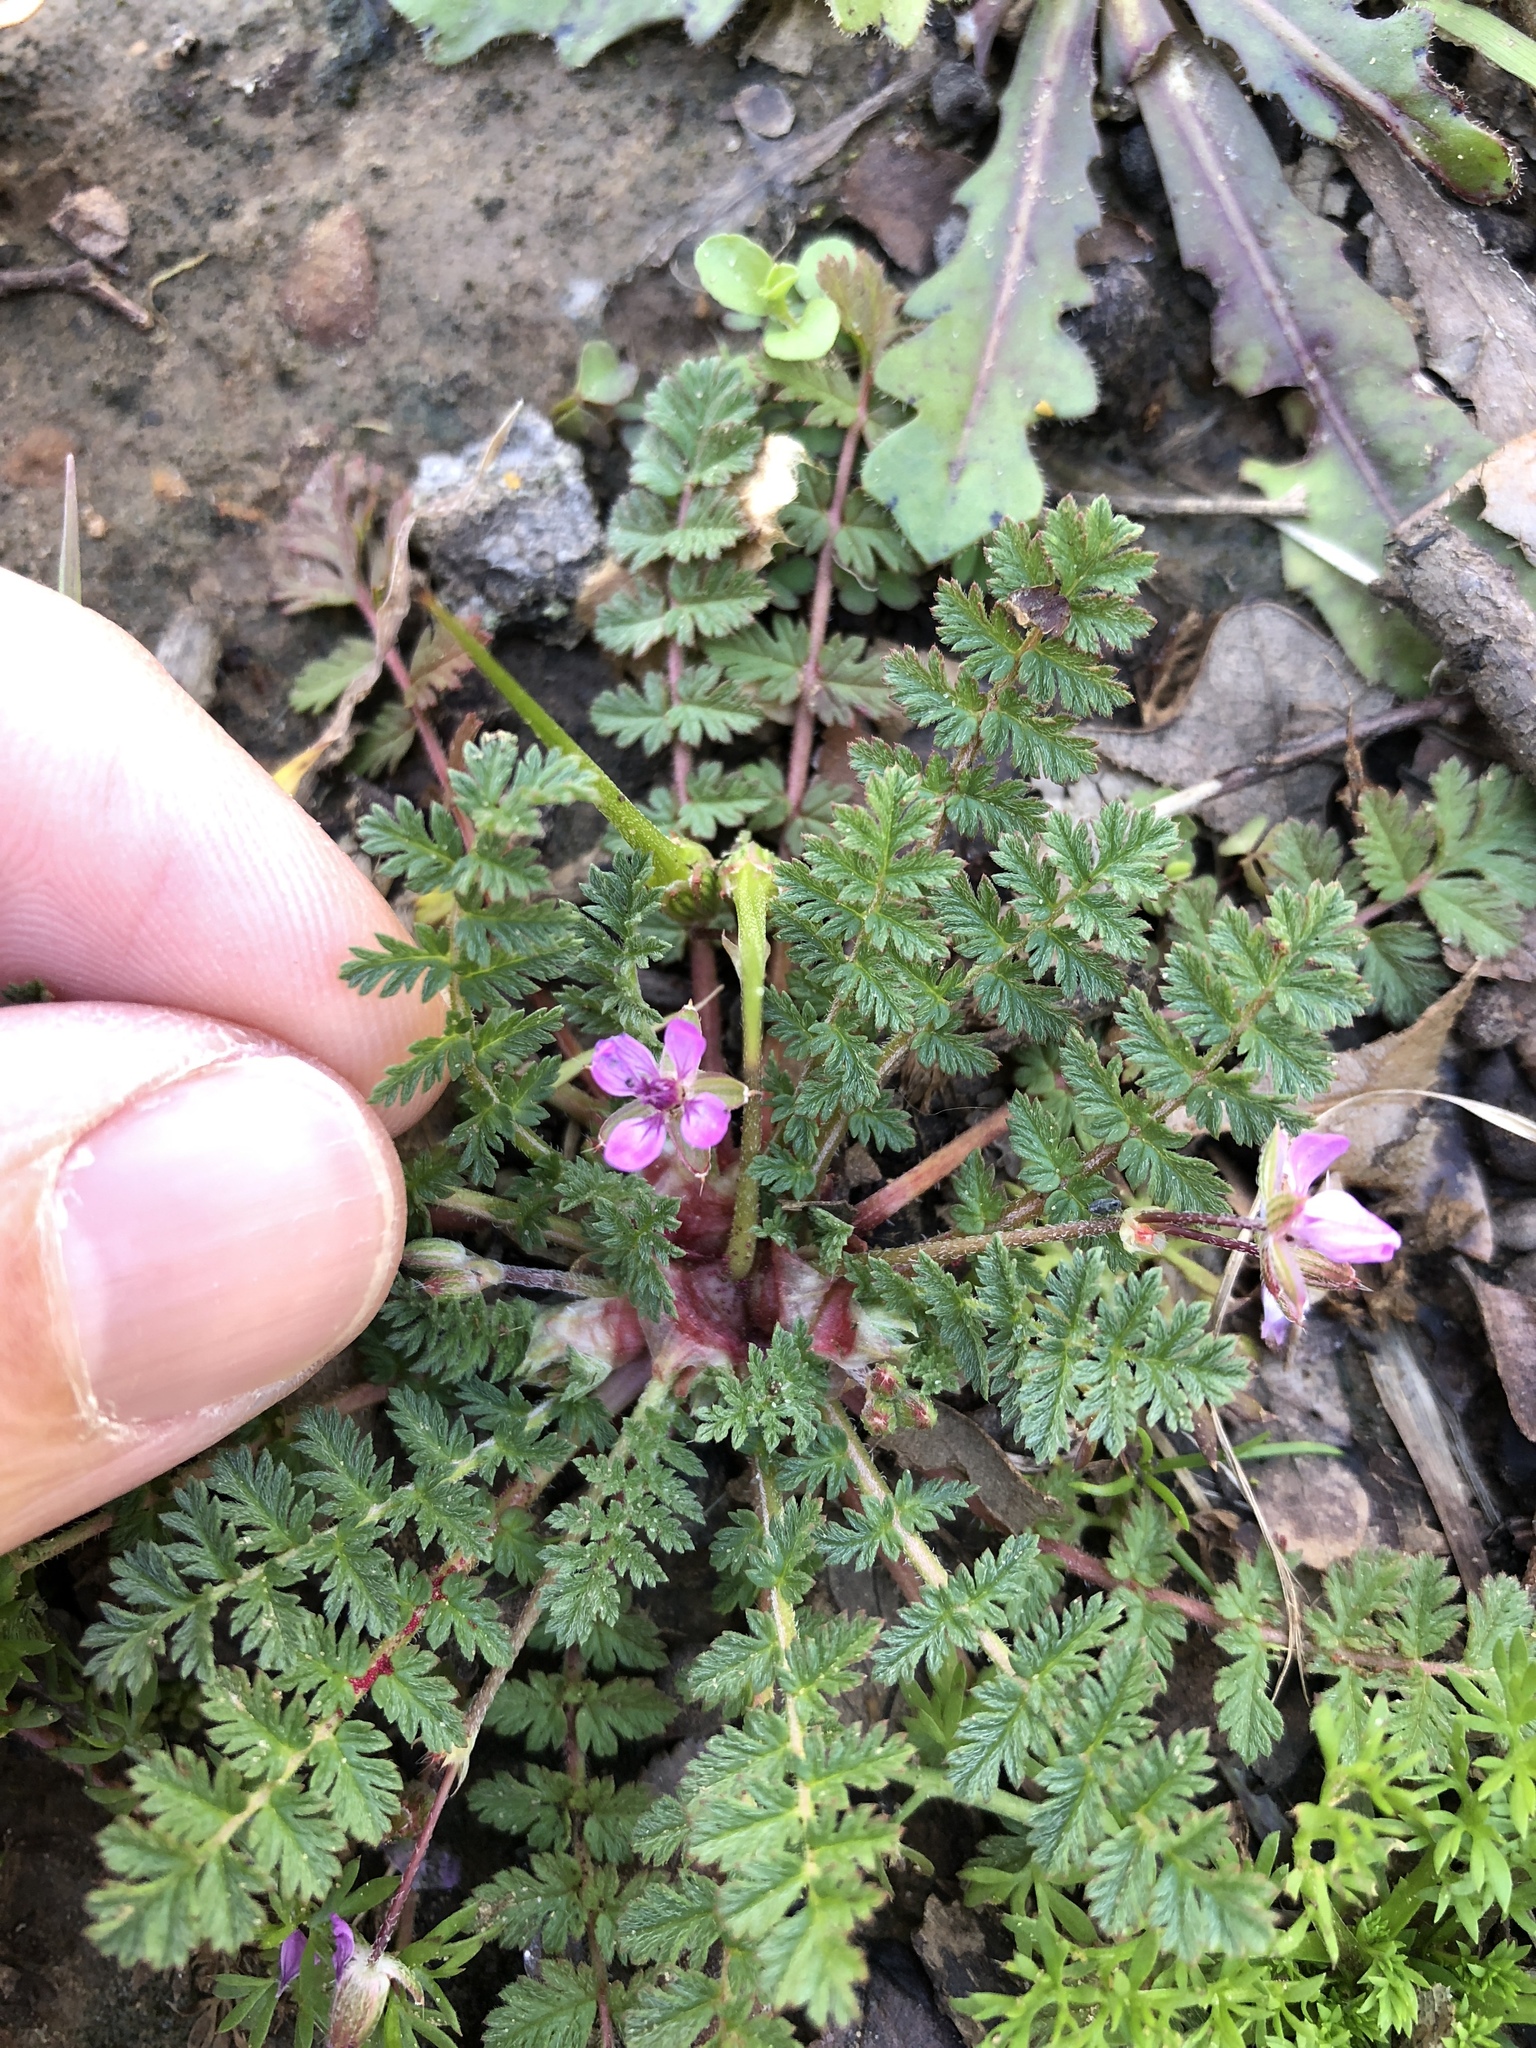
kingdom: Plantae
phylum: Tracheophyta
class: Magnoliopsida
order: Geraniales
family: Geraniaceae
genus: Erodium
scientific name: Erodium cicutarium
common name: Common stork's-bill
